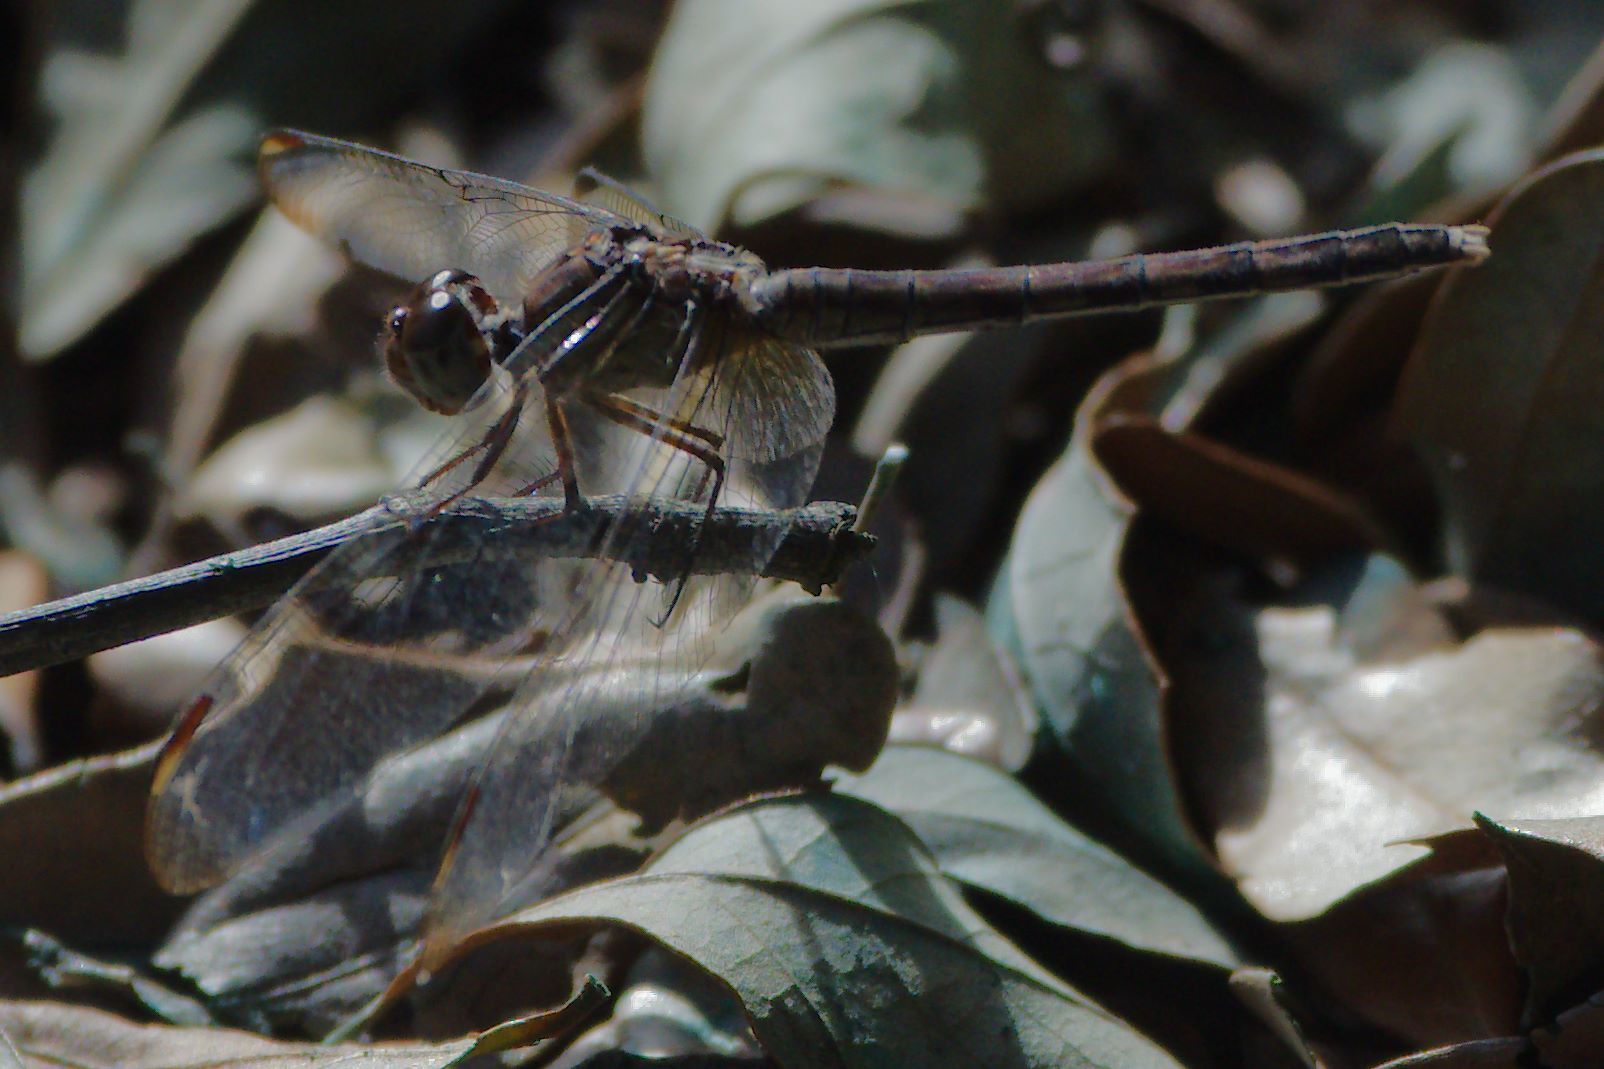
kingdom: Animalia
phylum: Arthropoda
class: Insecta
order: Odonata
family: Libellulidae
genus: Erythrodiplax
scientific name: Erythrodiplax umbrata
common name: Band-winged dragonlet
